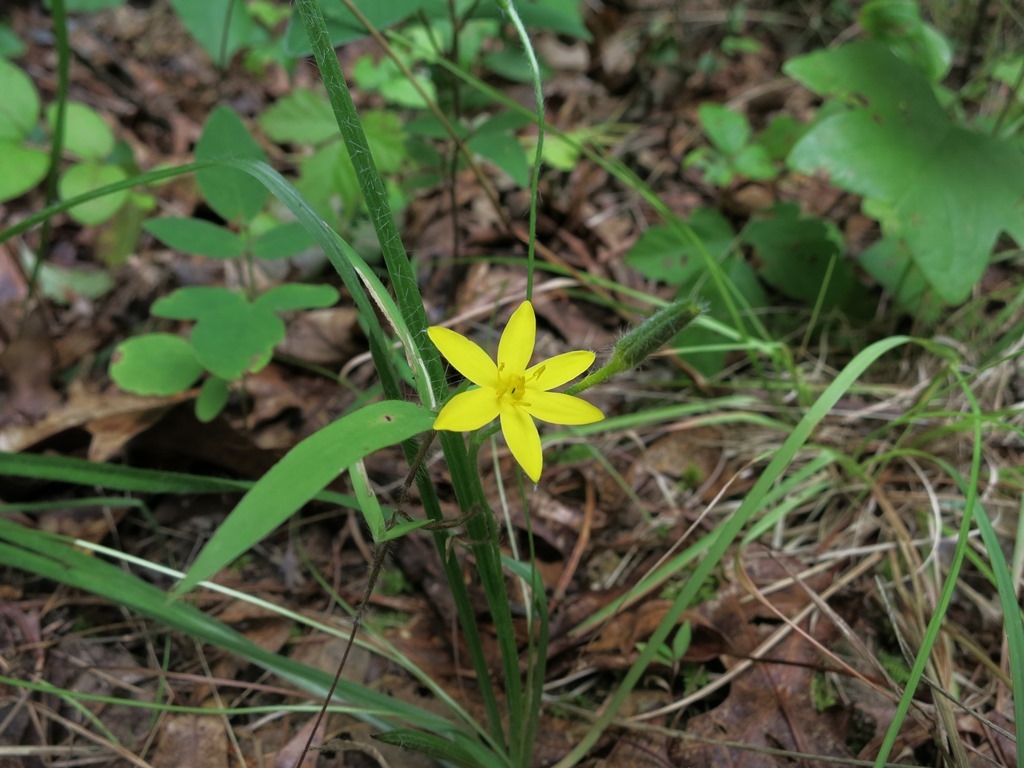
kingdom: Plantae
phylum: Tracheophyta
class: Liliopsida
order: Asparagales
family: Hypoxidaceae
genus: Hypoxis
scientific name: Hypoxis hirsuta
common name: Common goldstar
